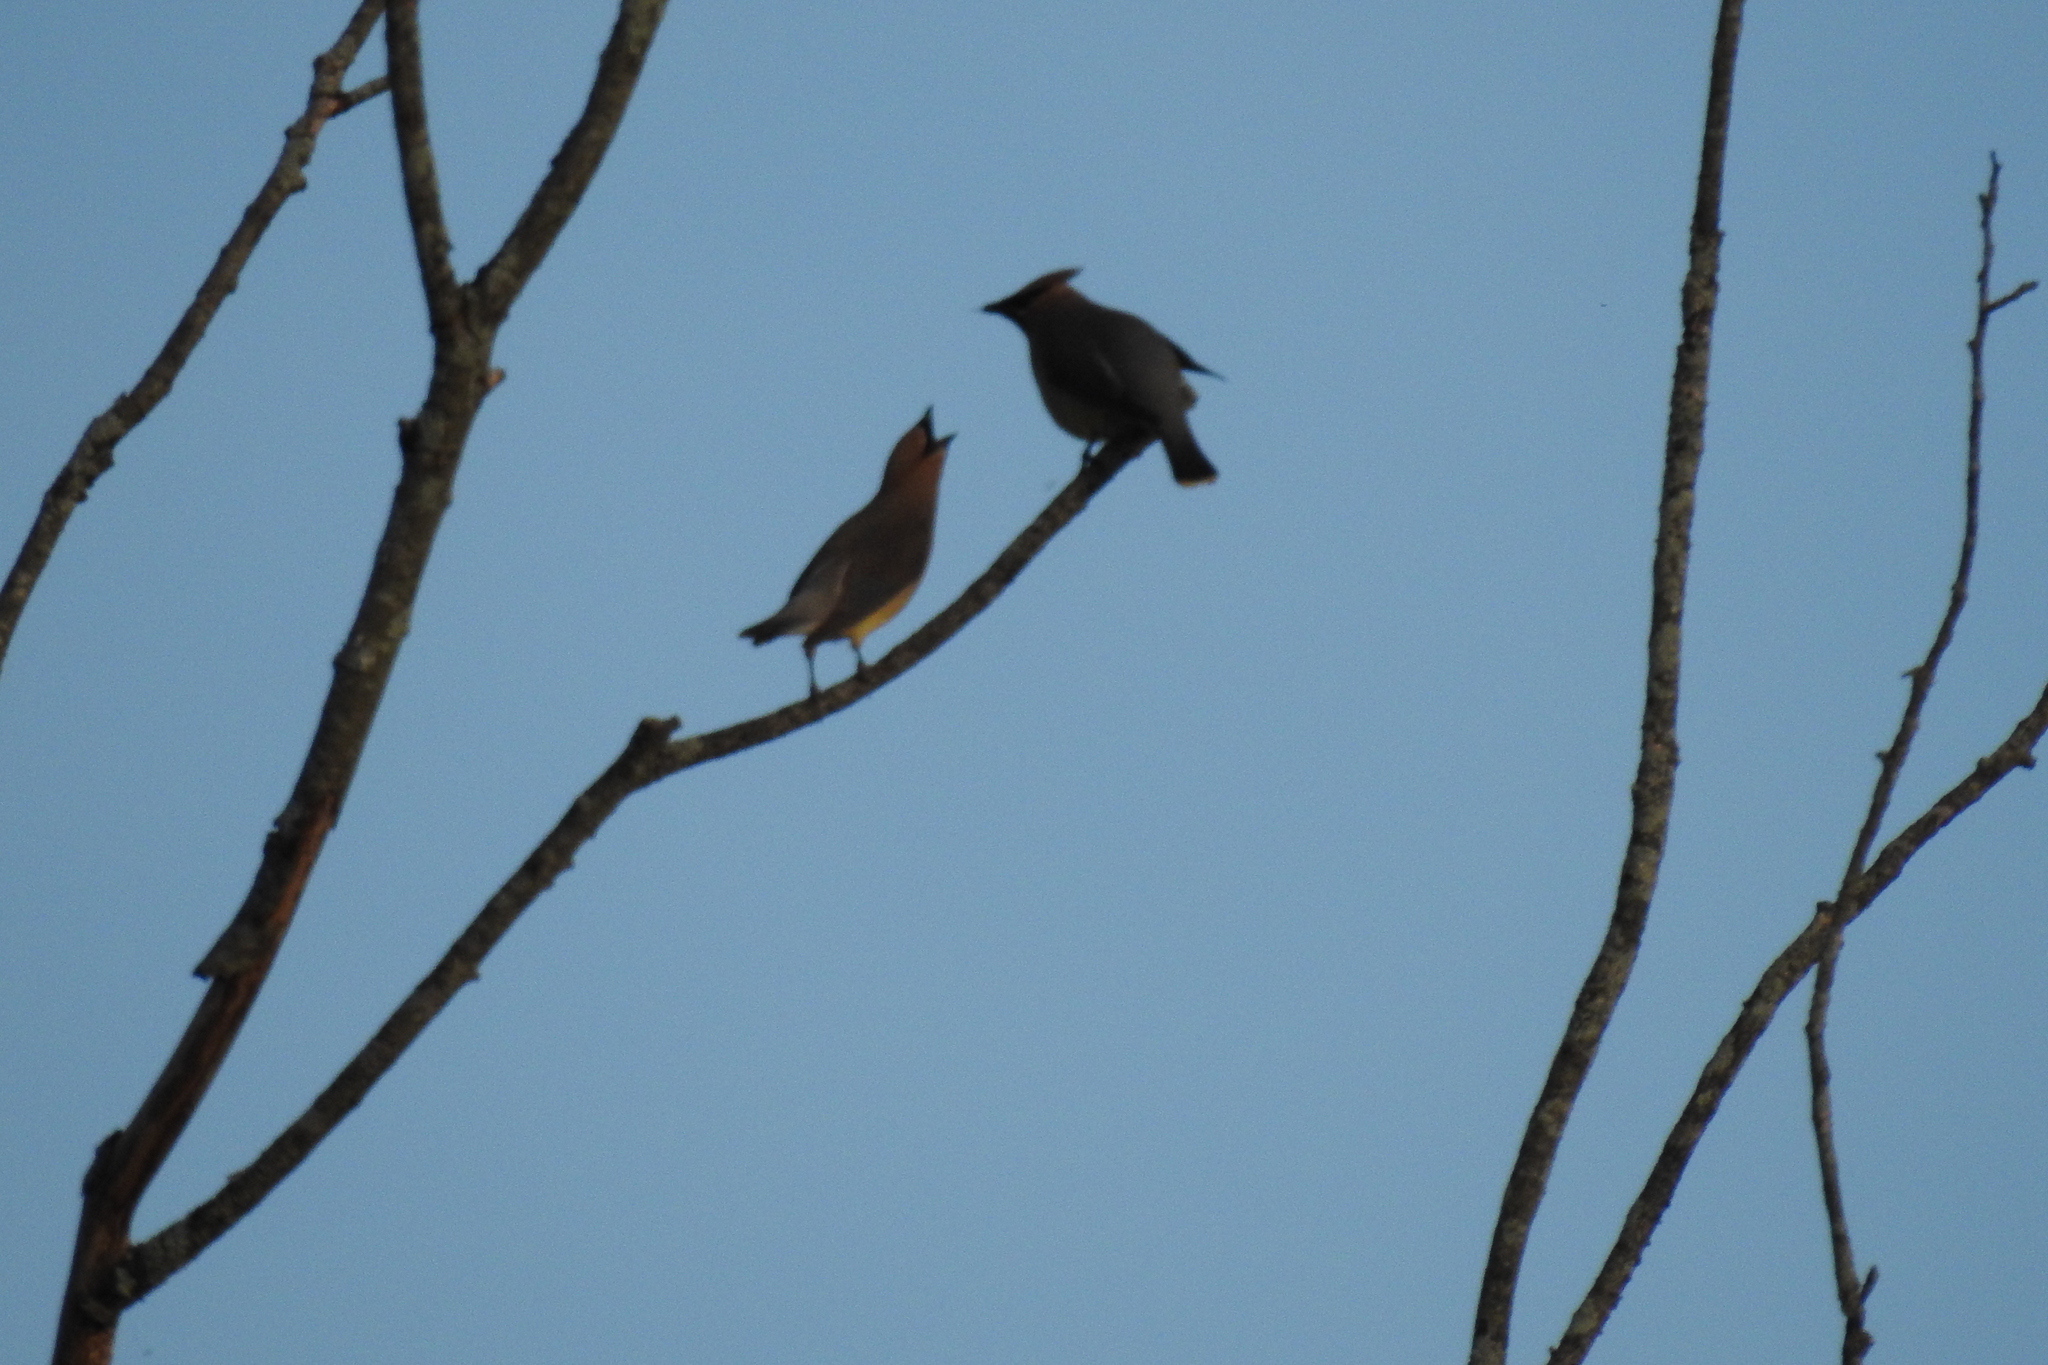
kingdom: Animalia
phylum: Chordata
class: Aves
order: Passeriformes
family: Bombycillidae
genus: Bombycilla
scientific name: Bombycilla cedrorum
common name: Cedar waxwing
